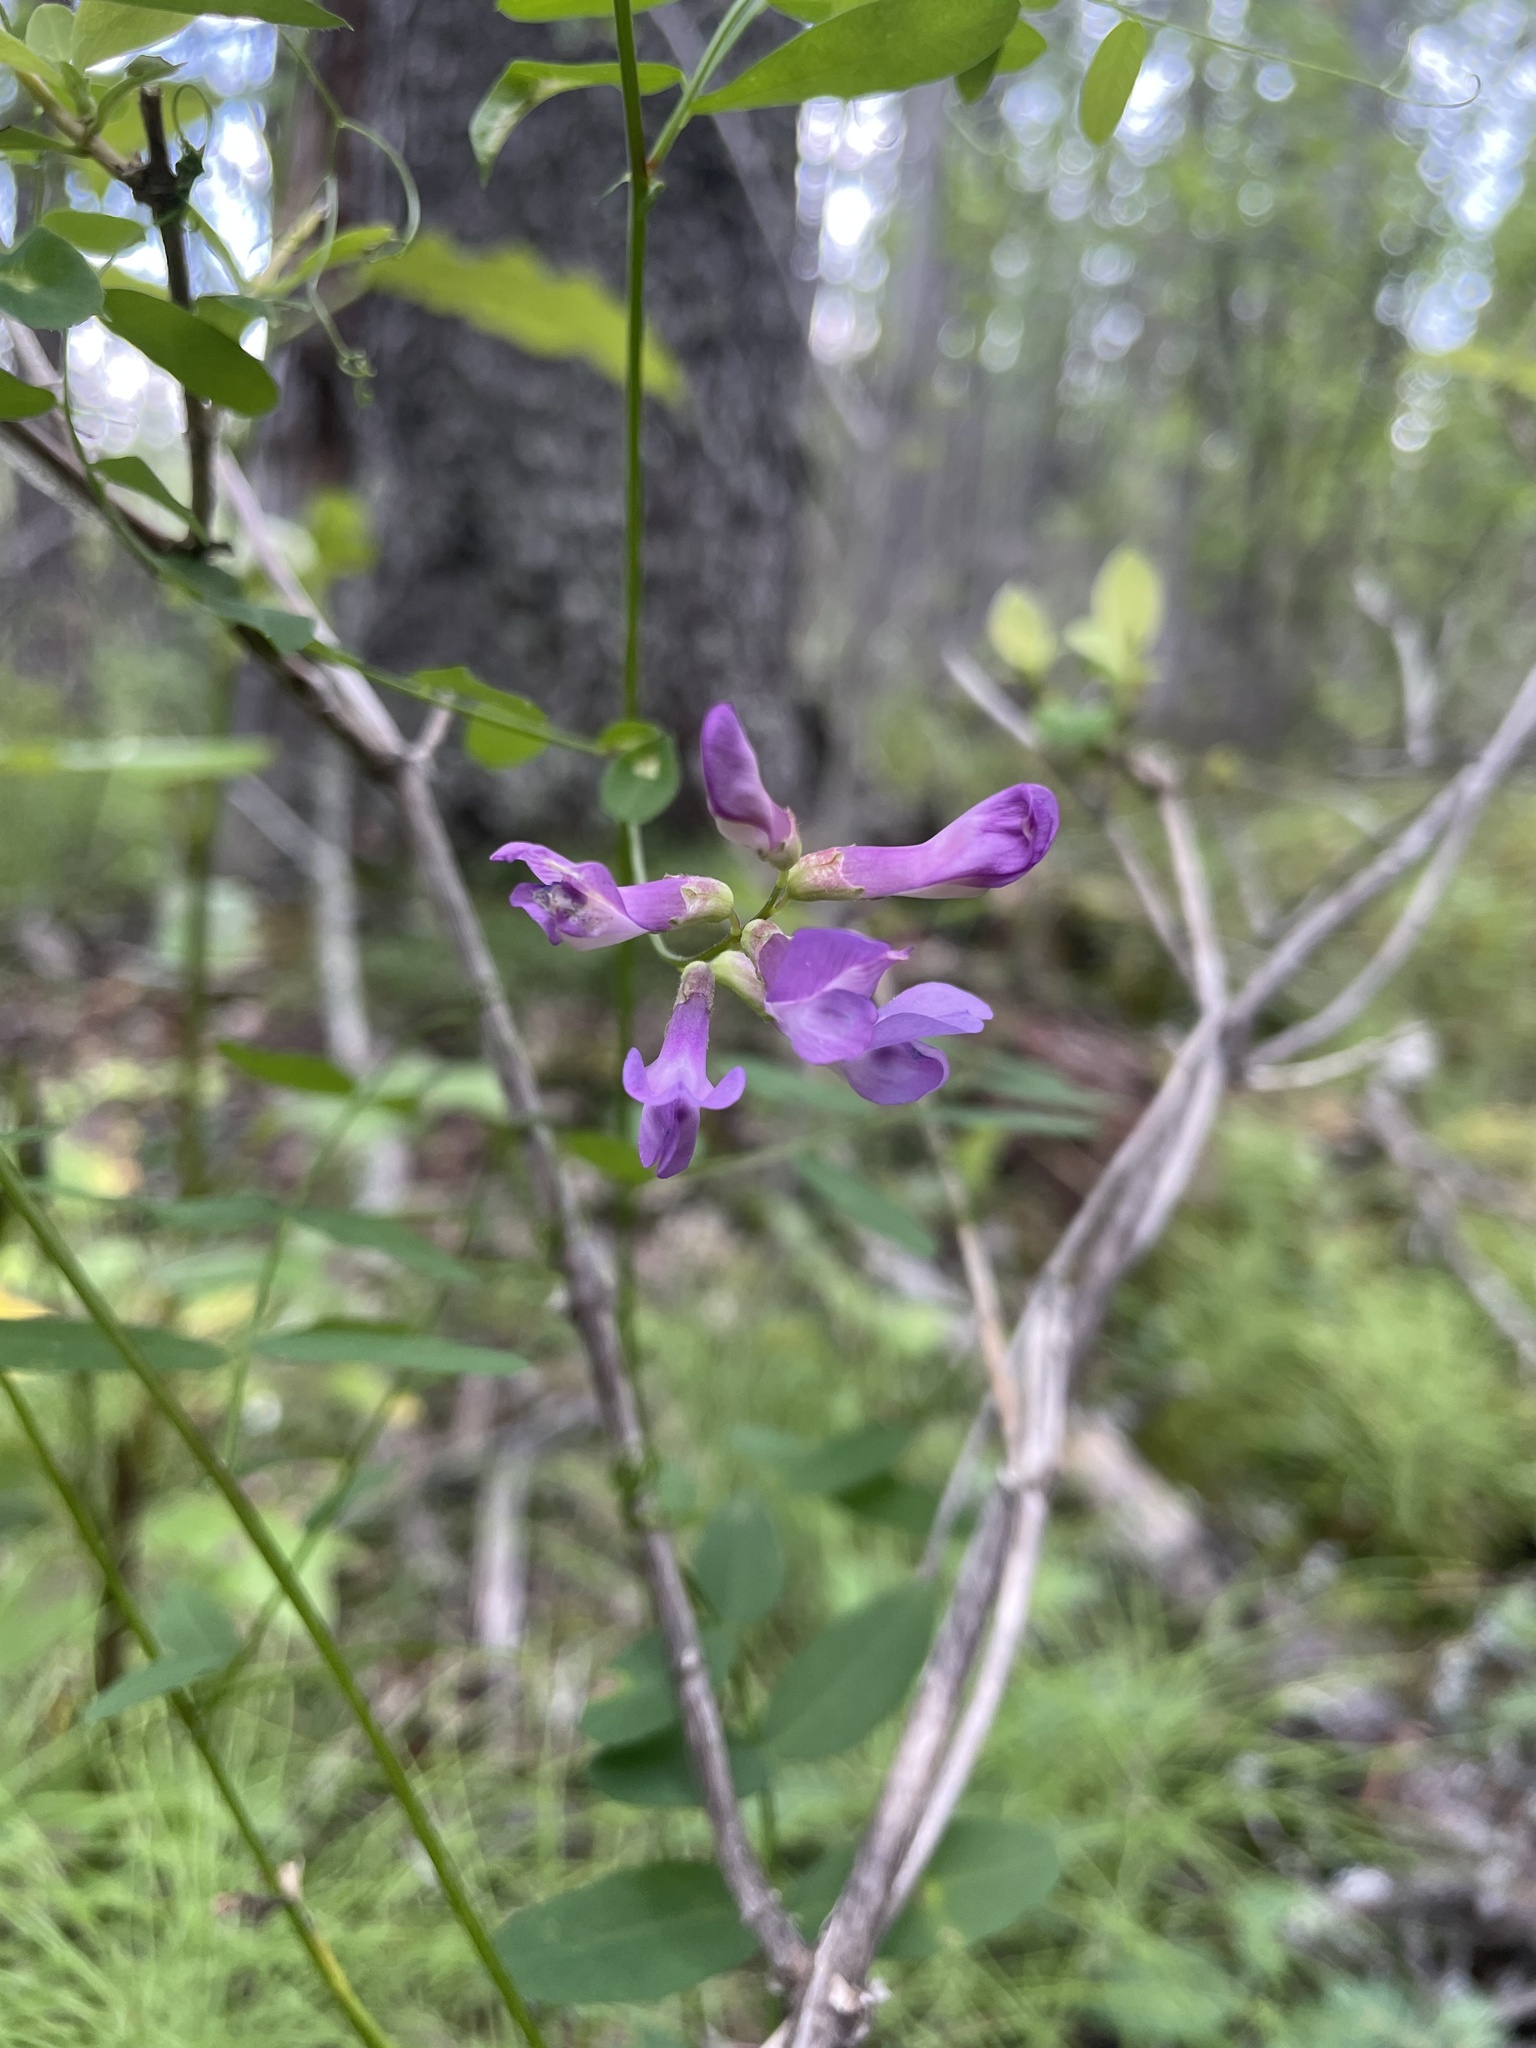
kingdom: Plantae
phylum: Tracheophyta
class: Magnoliopsida
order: Fabales
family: Fabaceae
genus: Vicia
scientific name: Vicia americana
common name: American vetch
